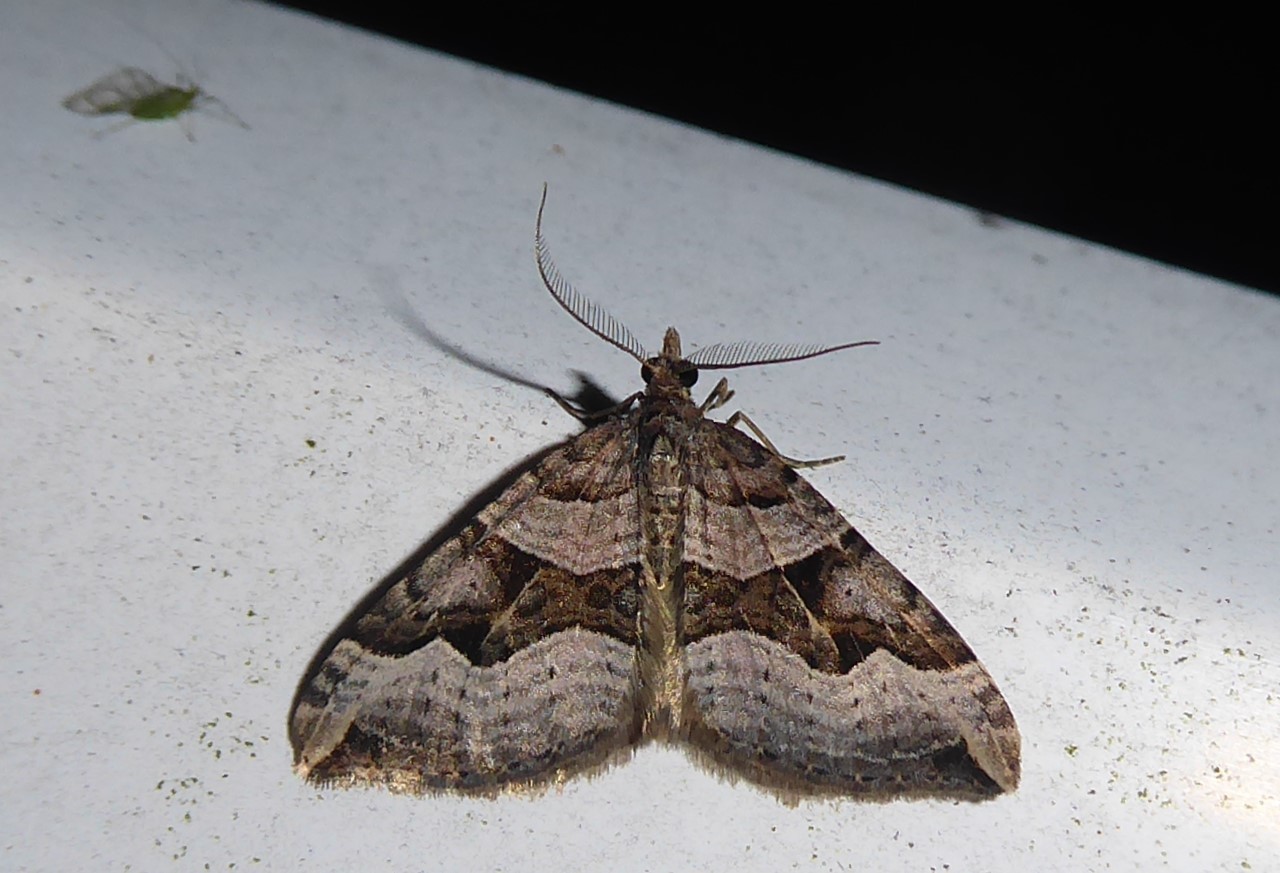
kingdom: Animalia
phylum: Arthropoda
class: Insecta
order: Lepidoptera
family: Geometridae
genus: Xanthorhoe
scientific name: Xanthorhoe semifissata
